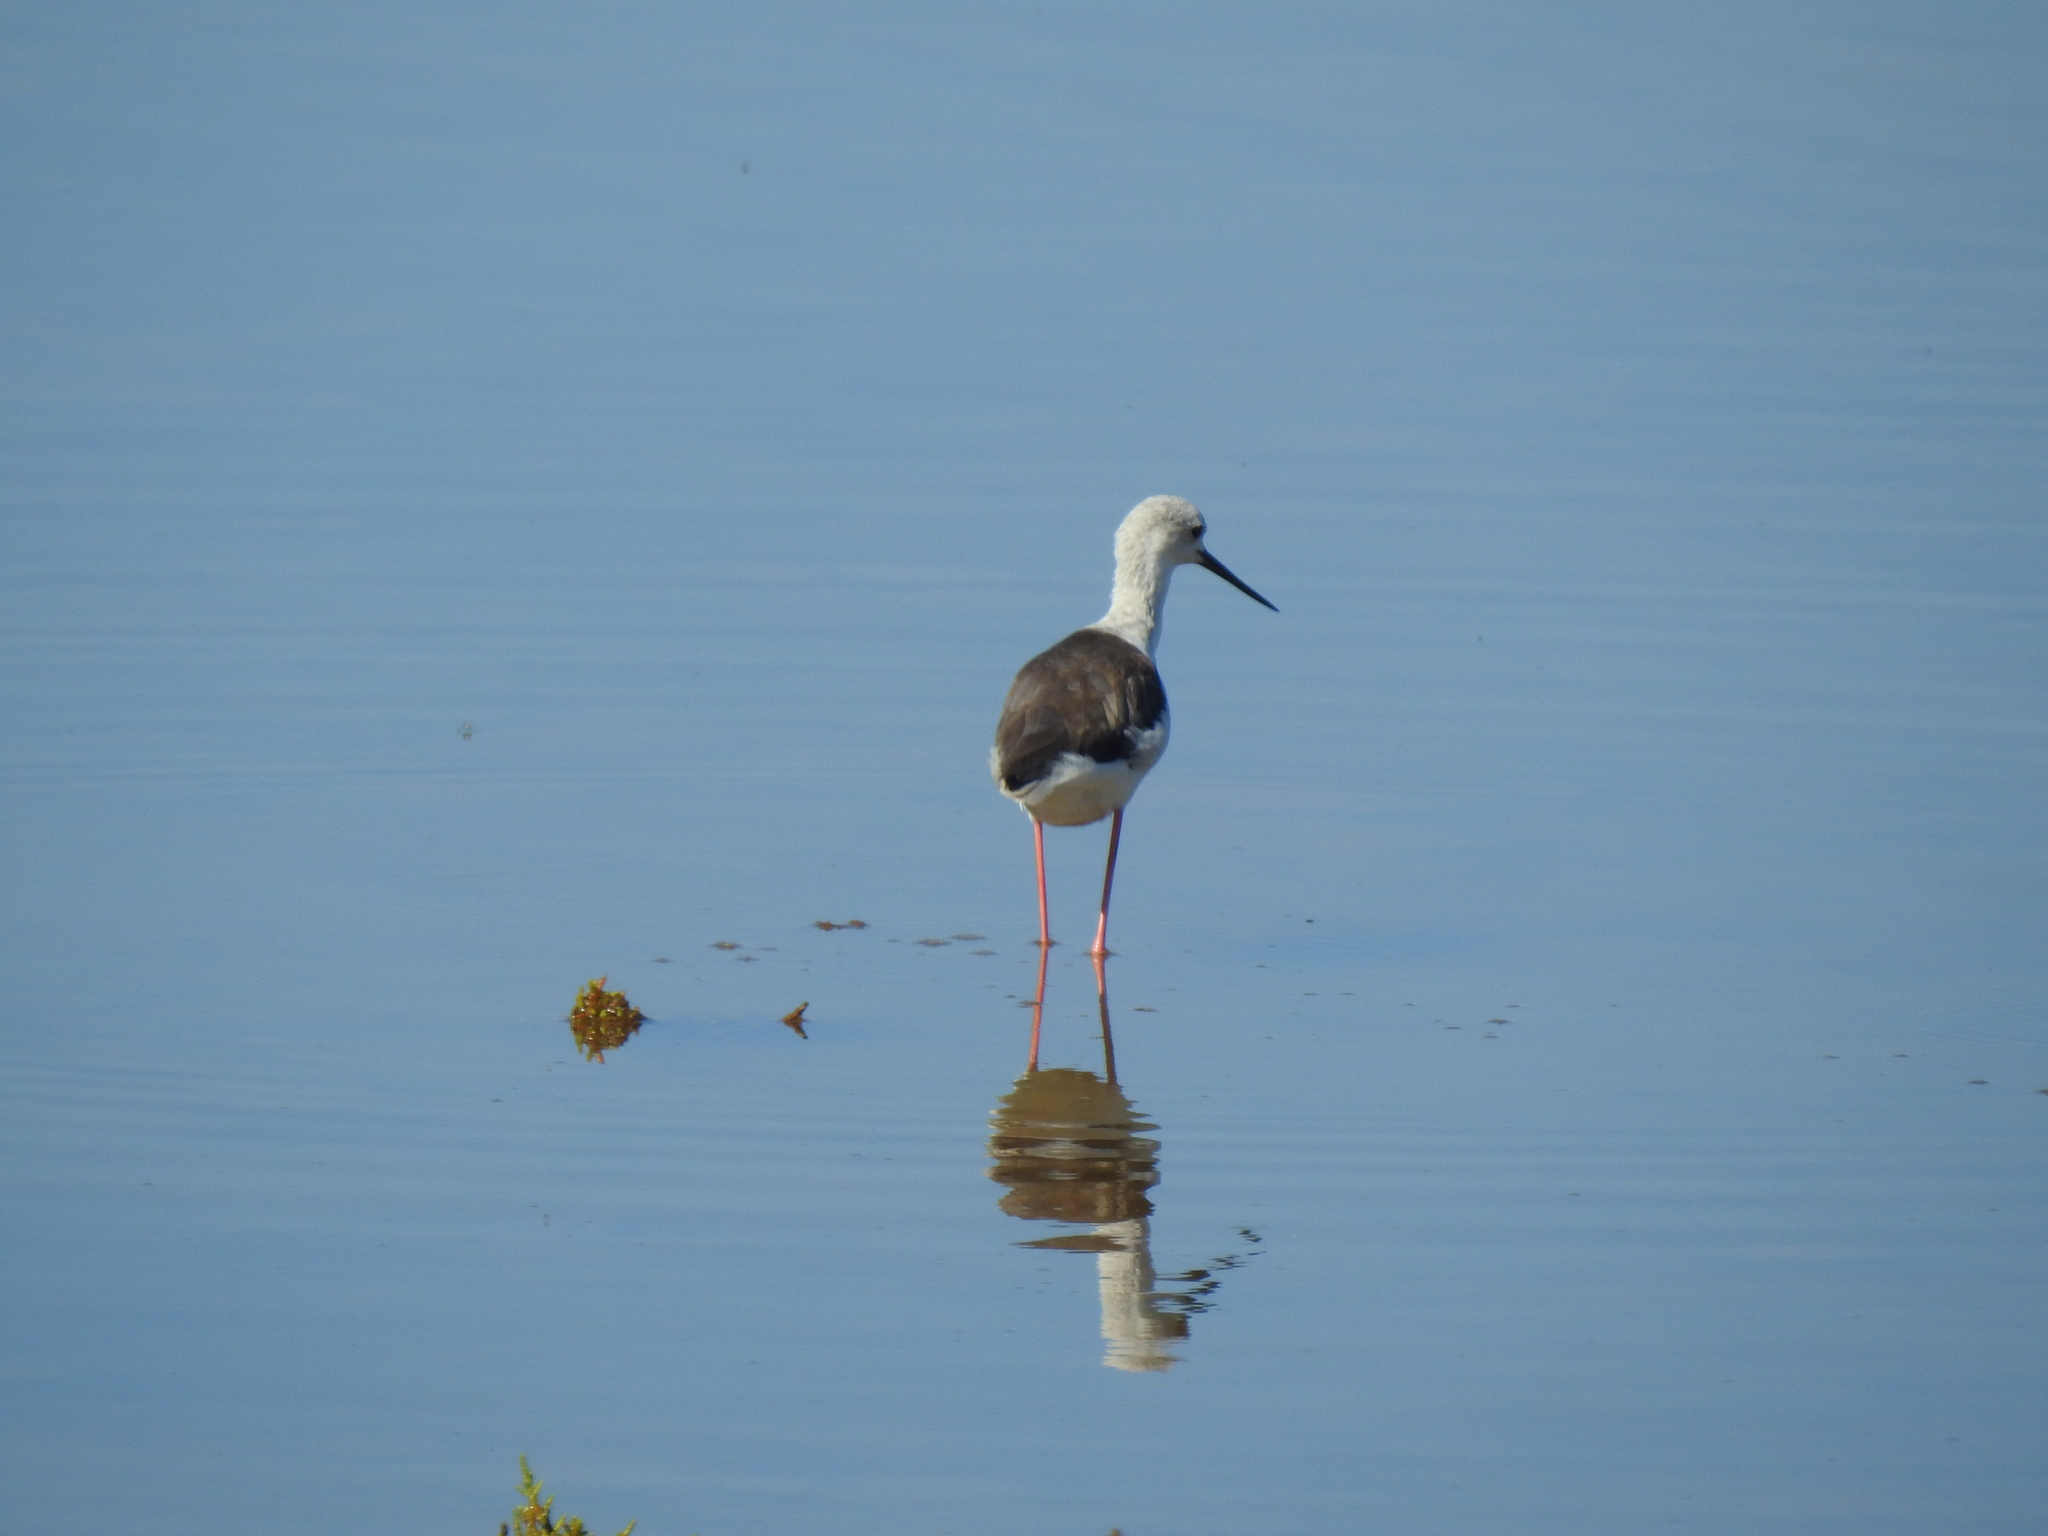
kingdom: Animalia
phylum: Chordata
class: Aves
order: Charadriiformes
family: Recurvirostridae
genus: Himantopus
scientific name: Himantopus himantopus
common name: Black-winged stilt
